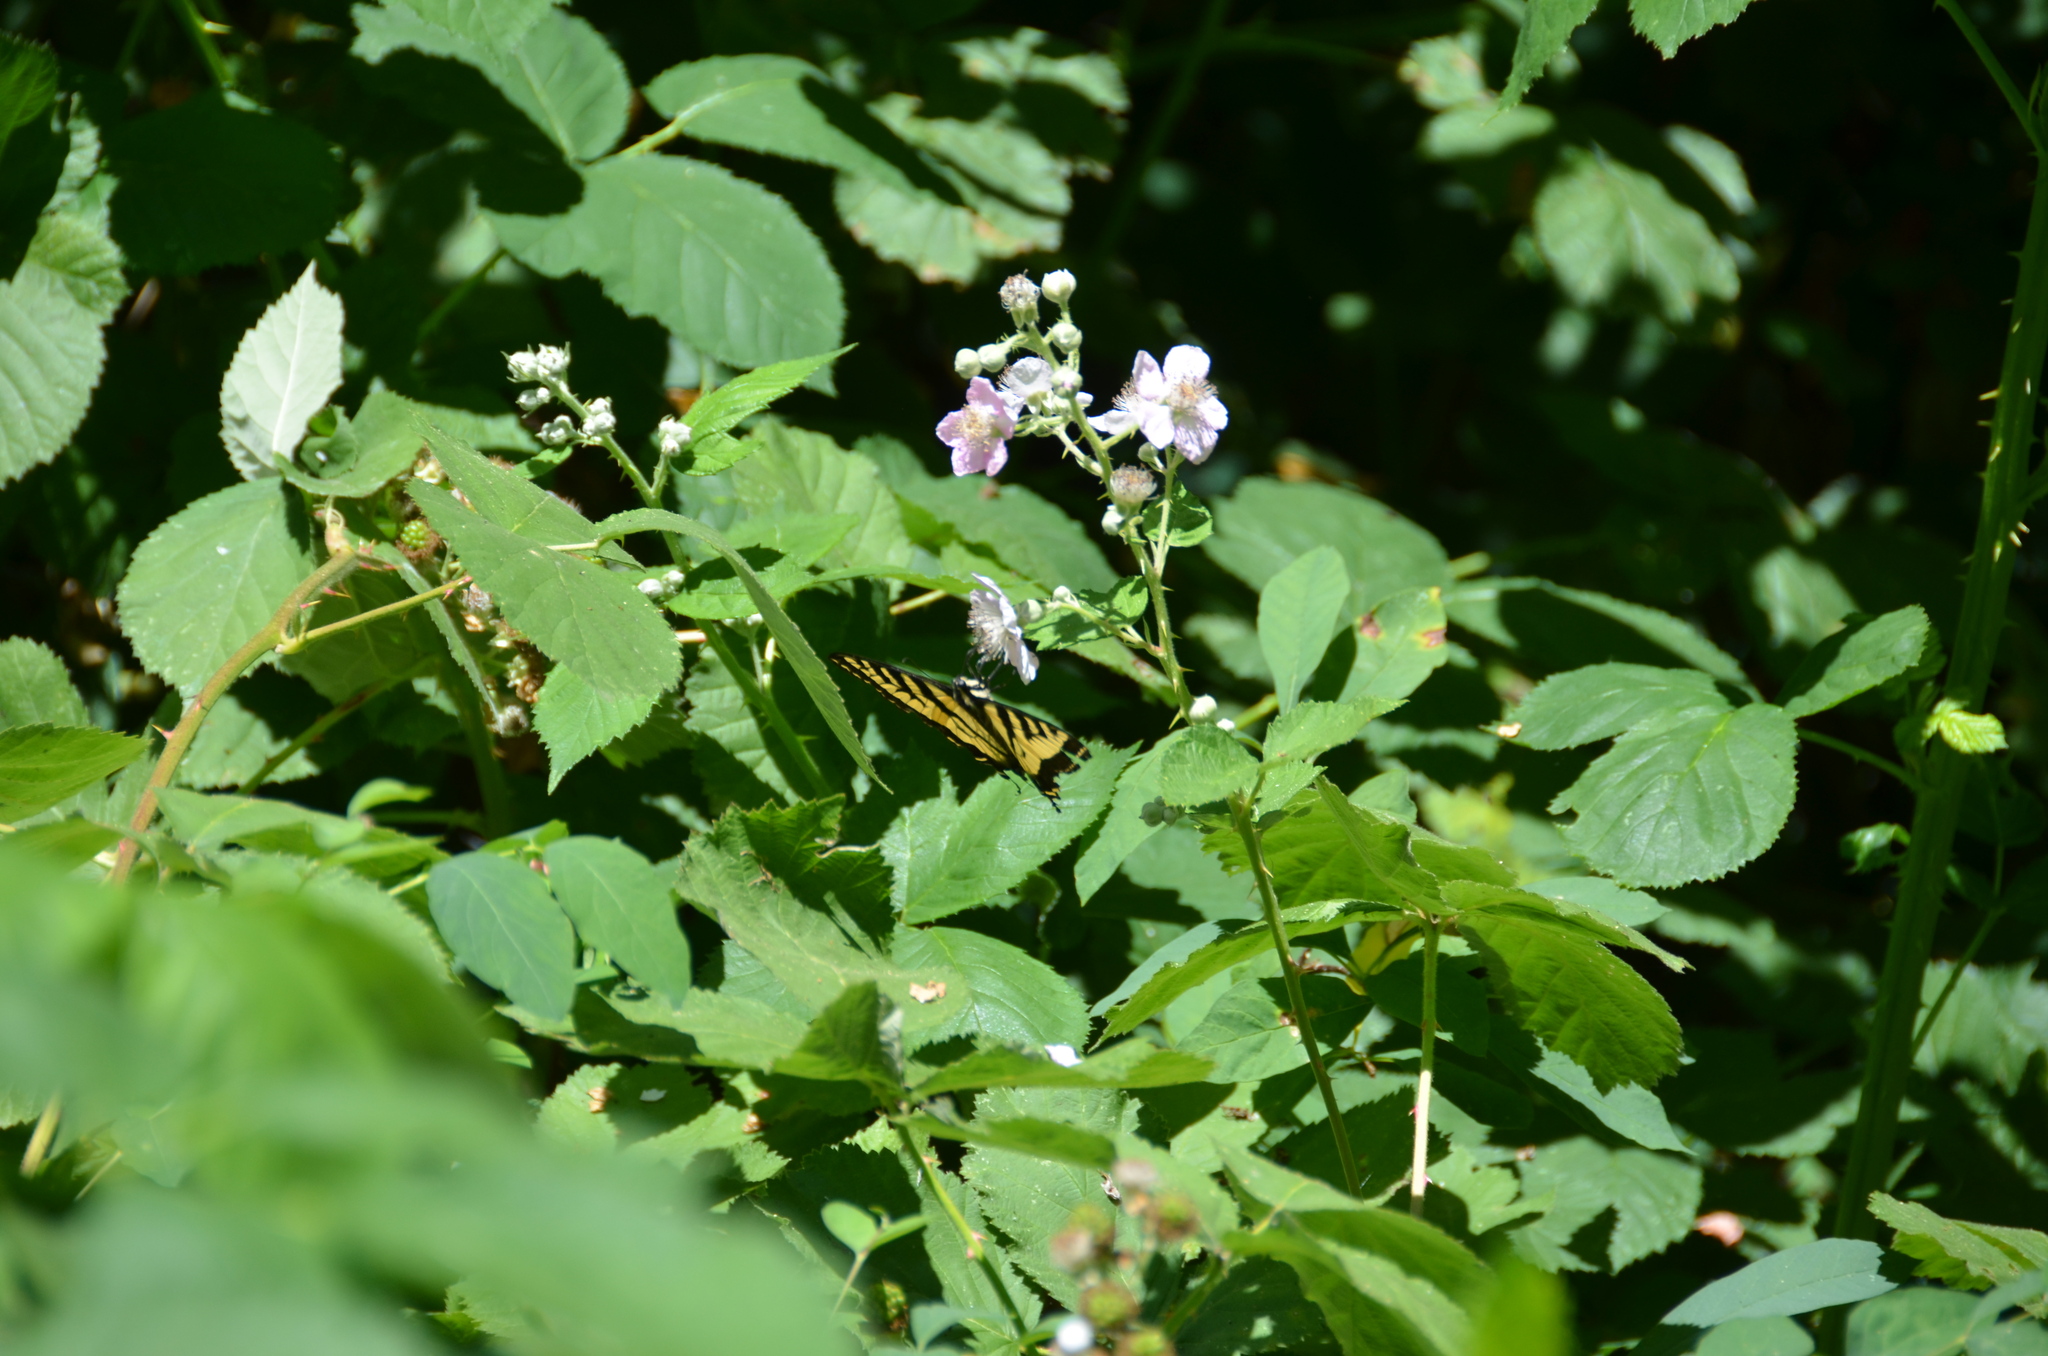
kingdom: Animalia
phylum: Arthropoda
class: Insecta
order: Lepidoptera
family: Papilionidae
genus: Papilio
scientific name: Papilio rutulus
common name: Western tiger swallowtail
